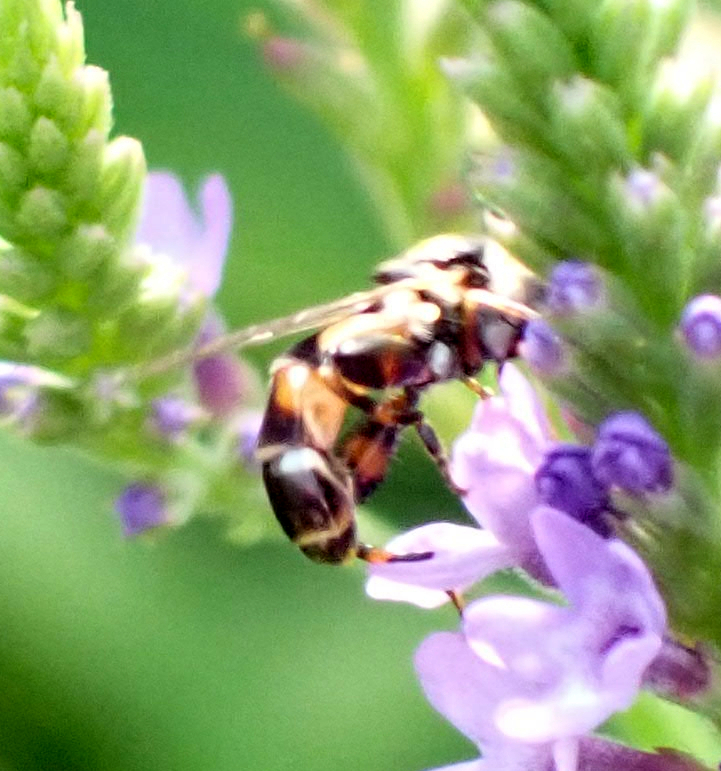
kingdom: Animalia
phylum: Arthropoda
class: Insecta
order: Diptera
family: Syrphidae
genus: Syritta
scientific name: Syritta pipiens
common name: Hover fly
